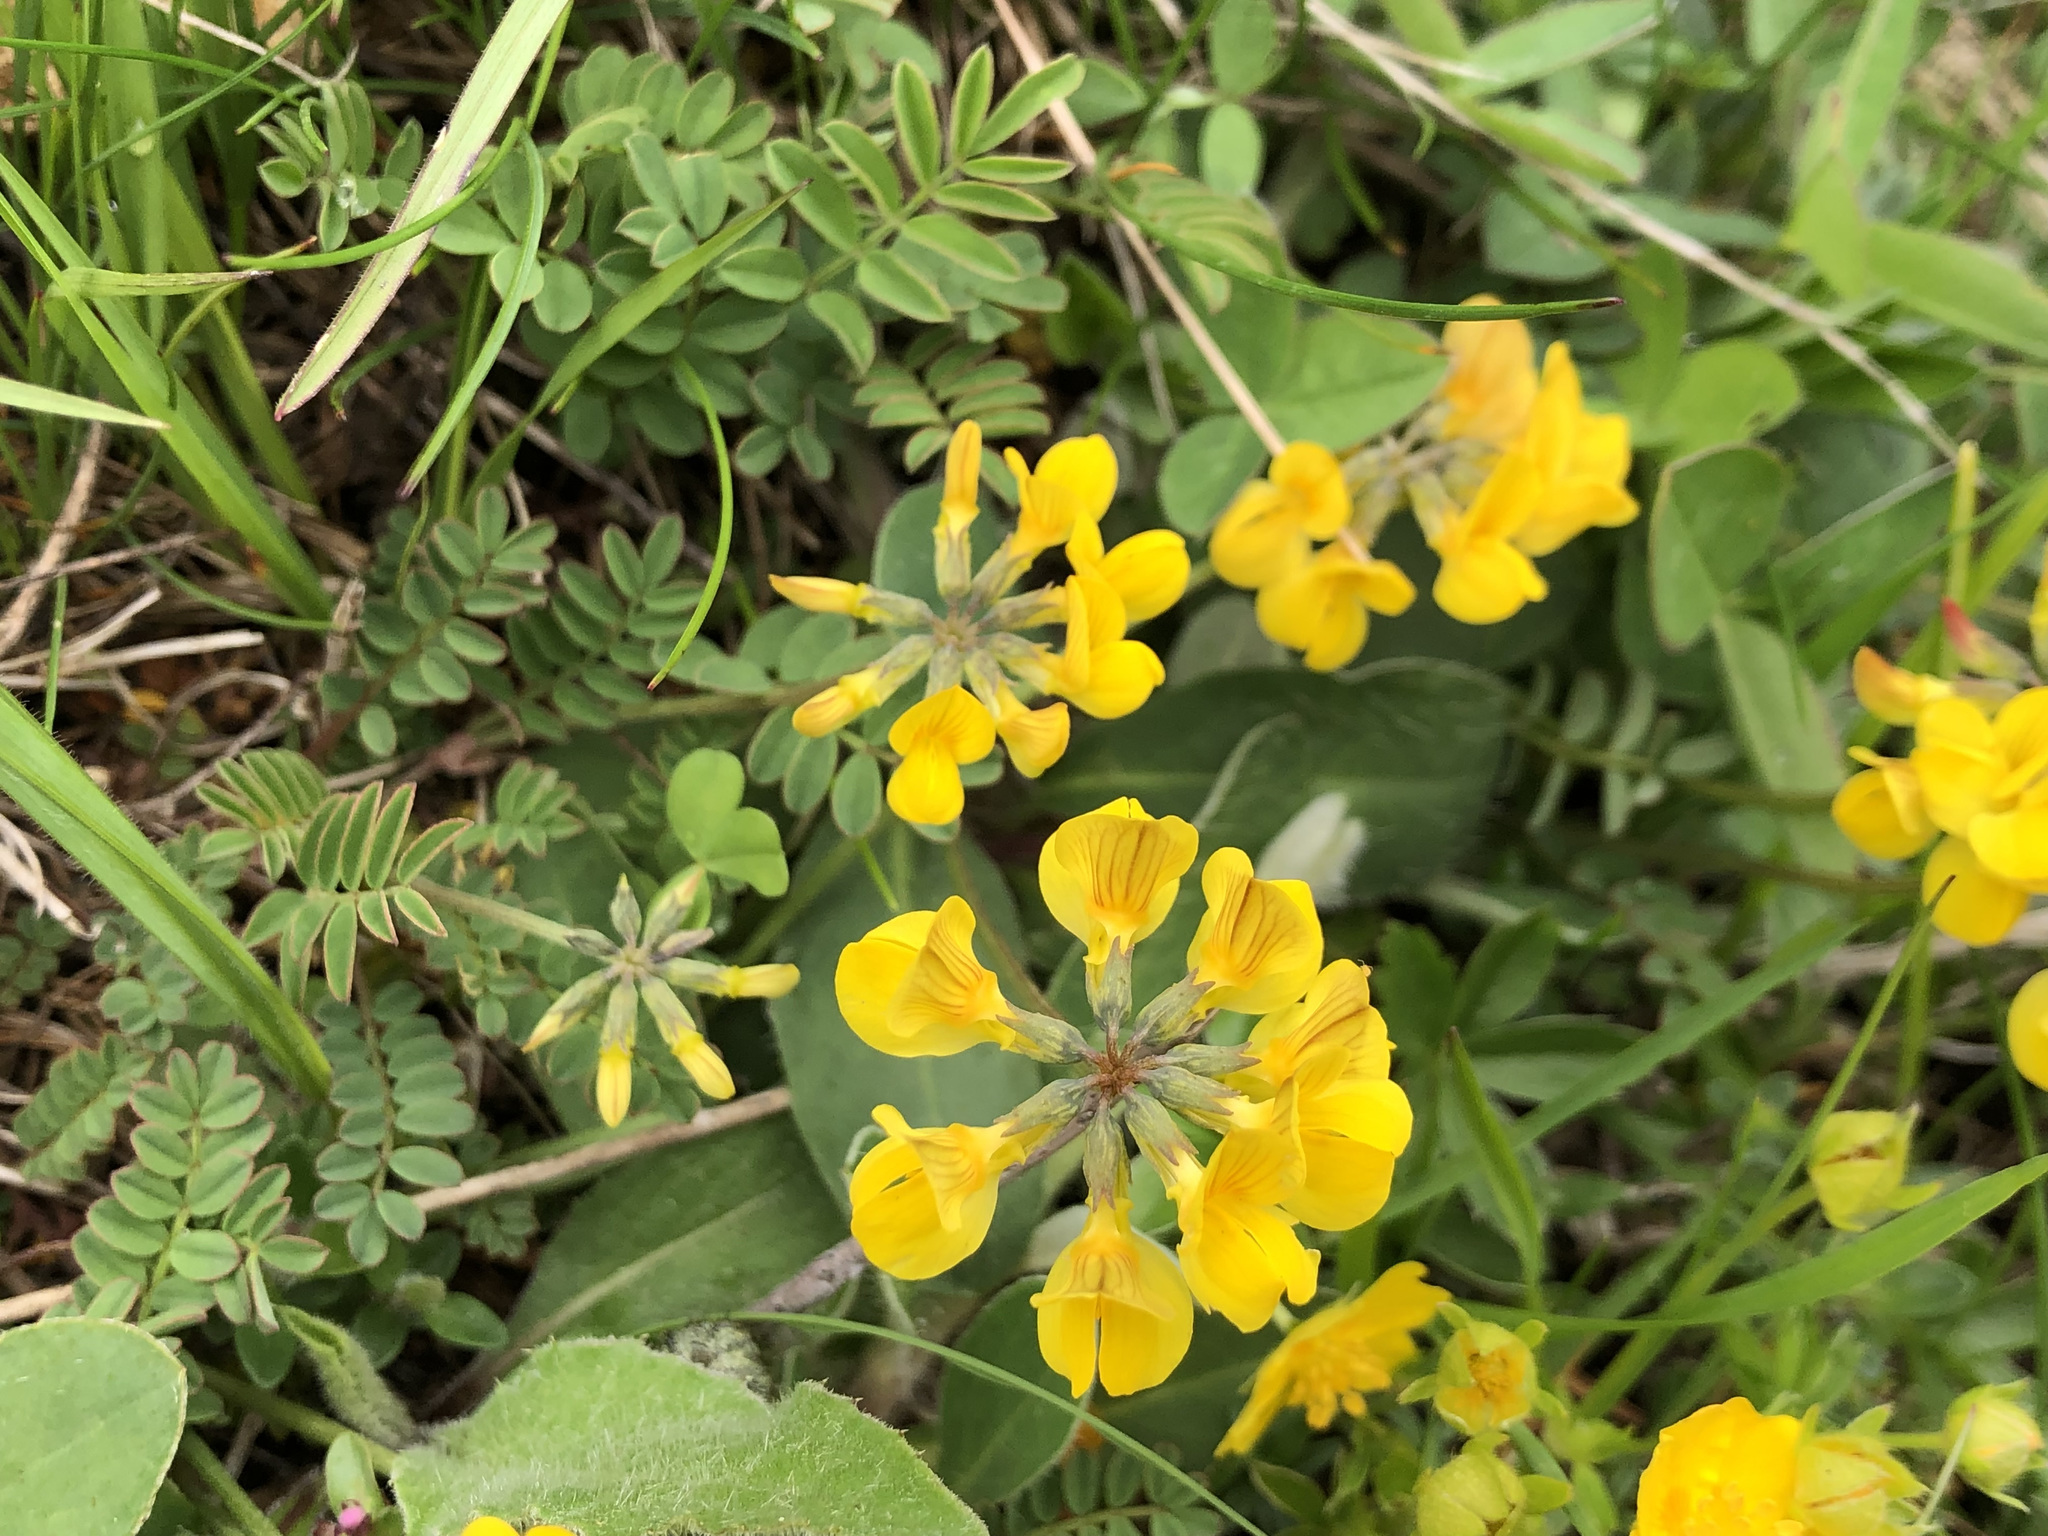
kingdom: Plantae
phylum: Tracheophyta
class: Magnoliopsida
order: Fabales
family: Fabaceae
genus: Hippocrepis
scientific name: Hippocrepis comosa
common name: Horseshoe vetch
